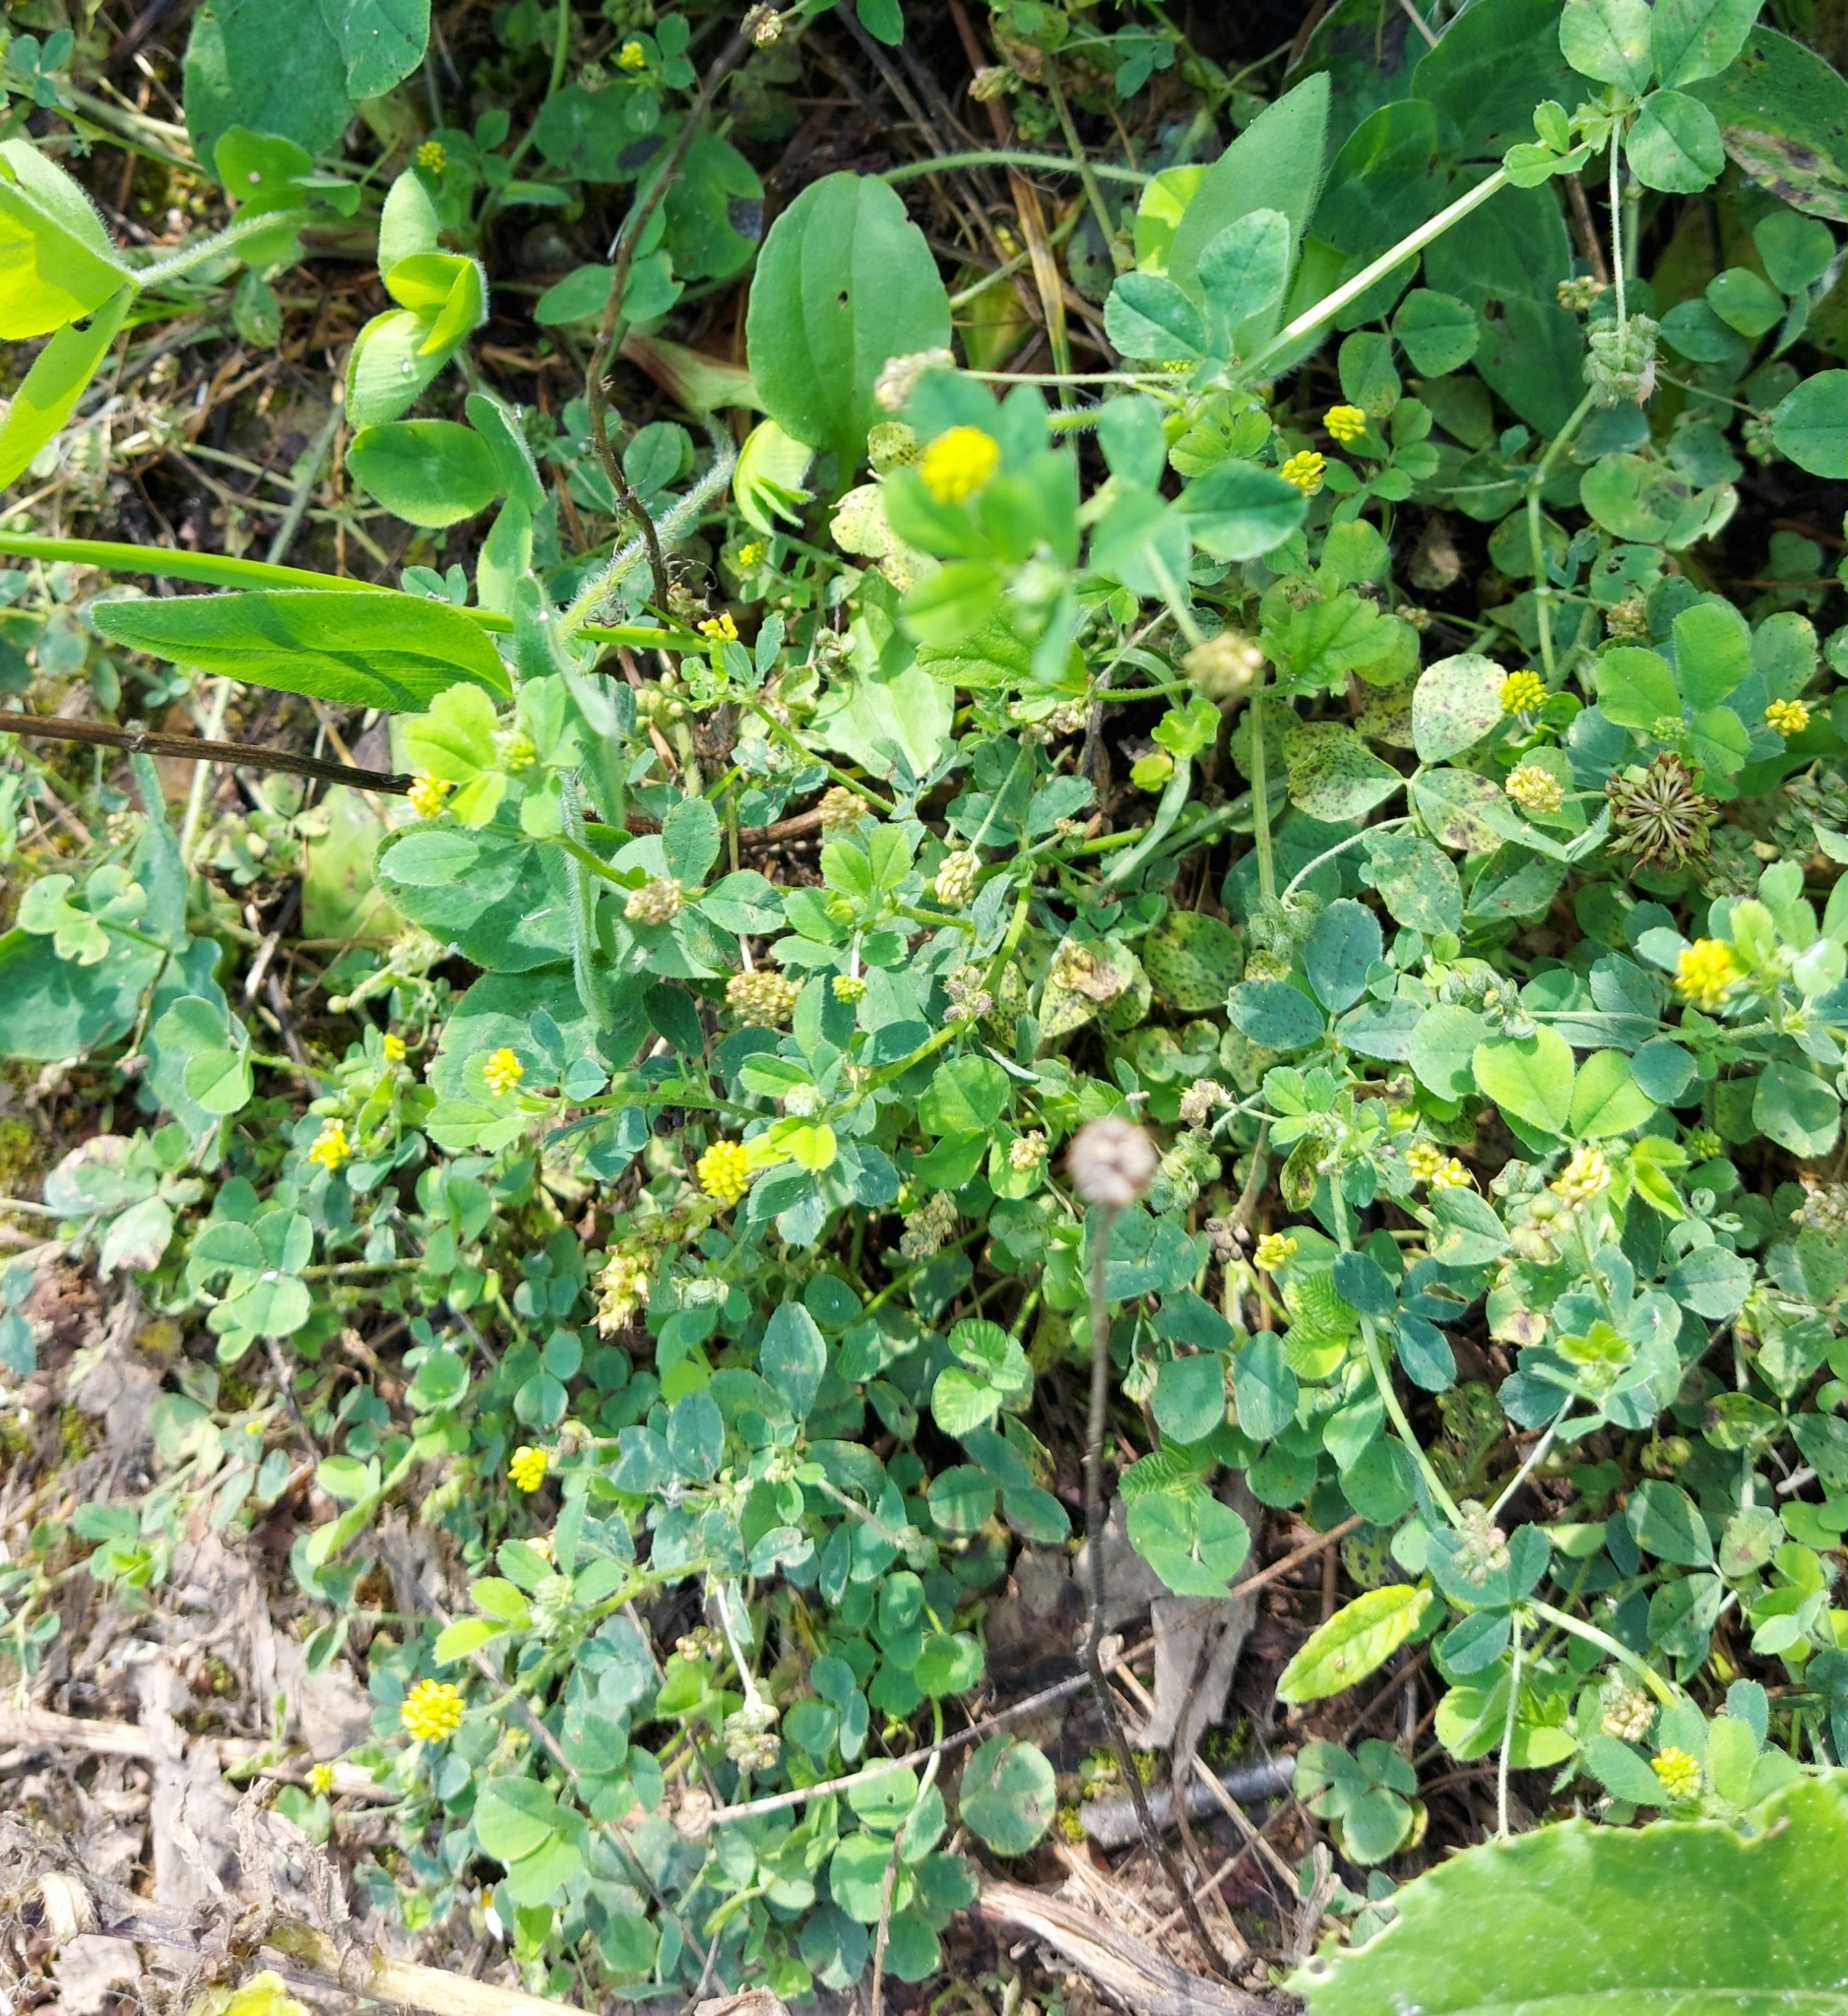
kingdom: Plantae
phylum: Tracheophyta
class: Magnoliopsida
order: Fabales
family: Fabaceae
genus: Medicago
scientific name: Medicago lupulina
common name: Black medick
